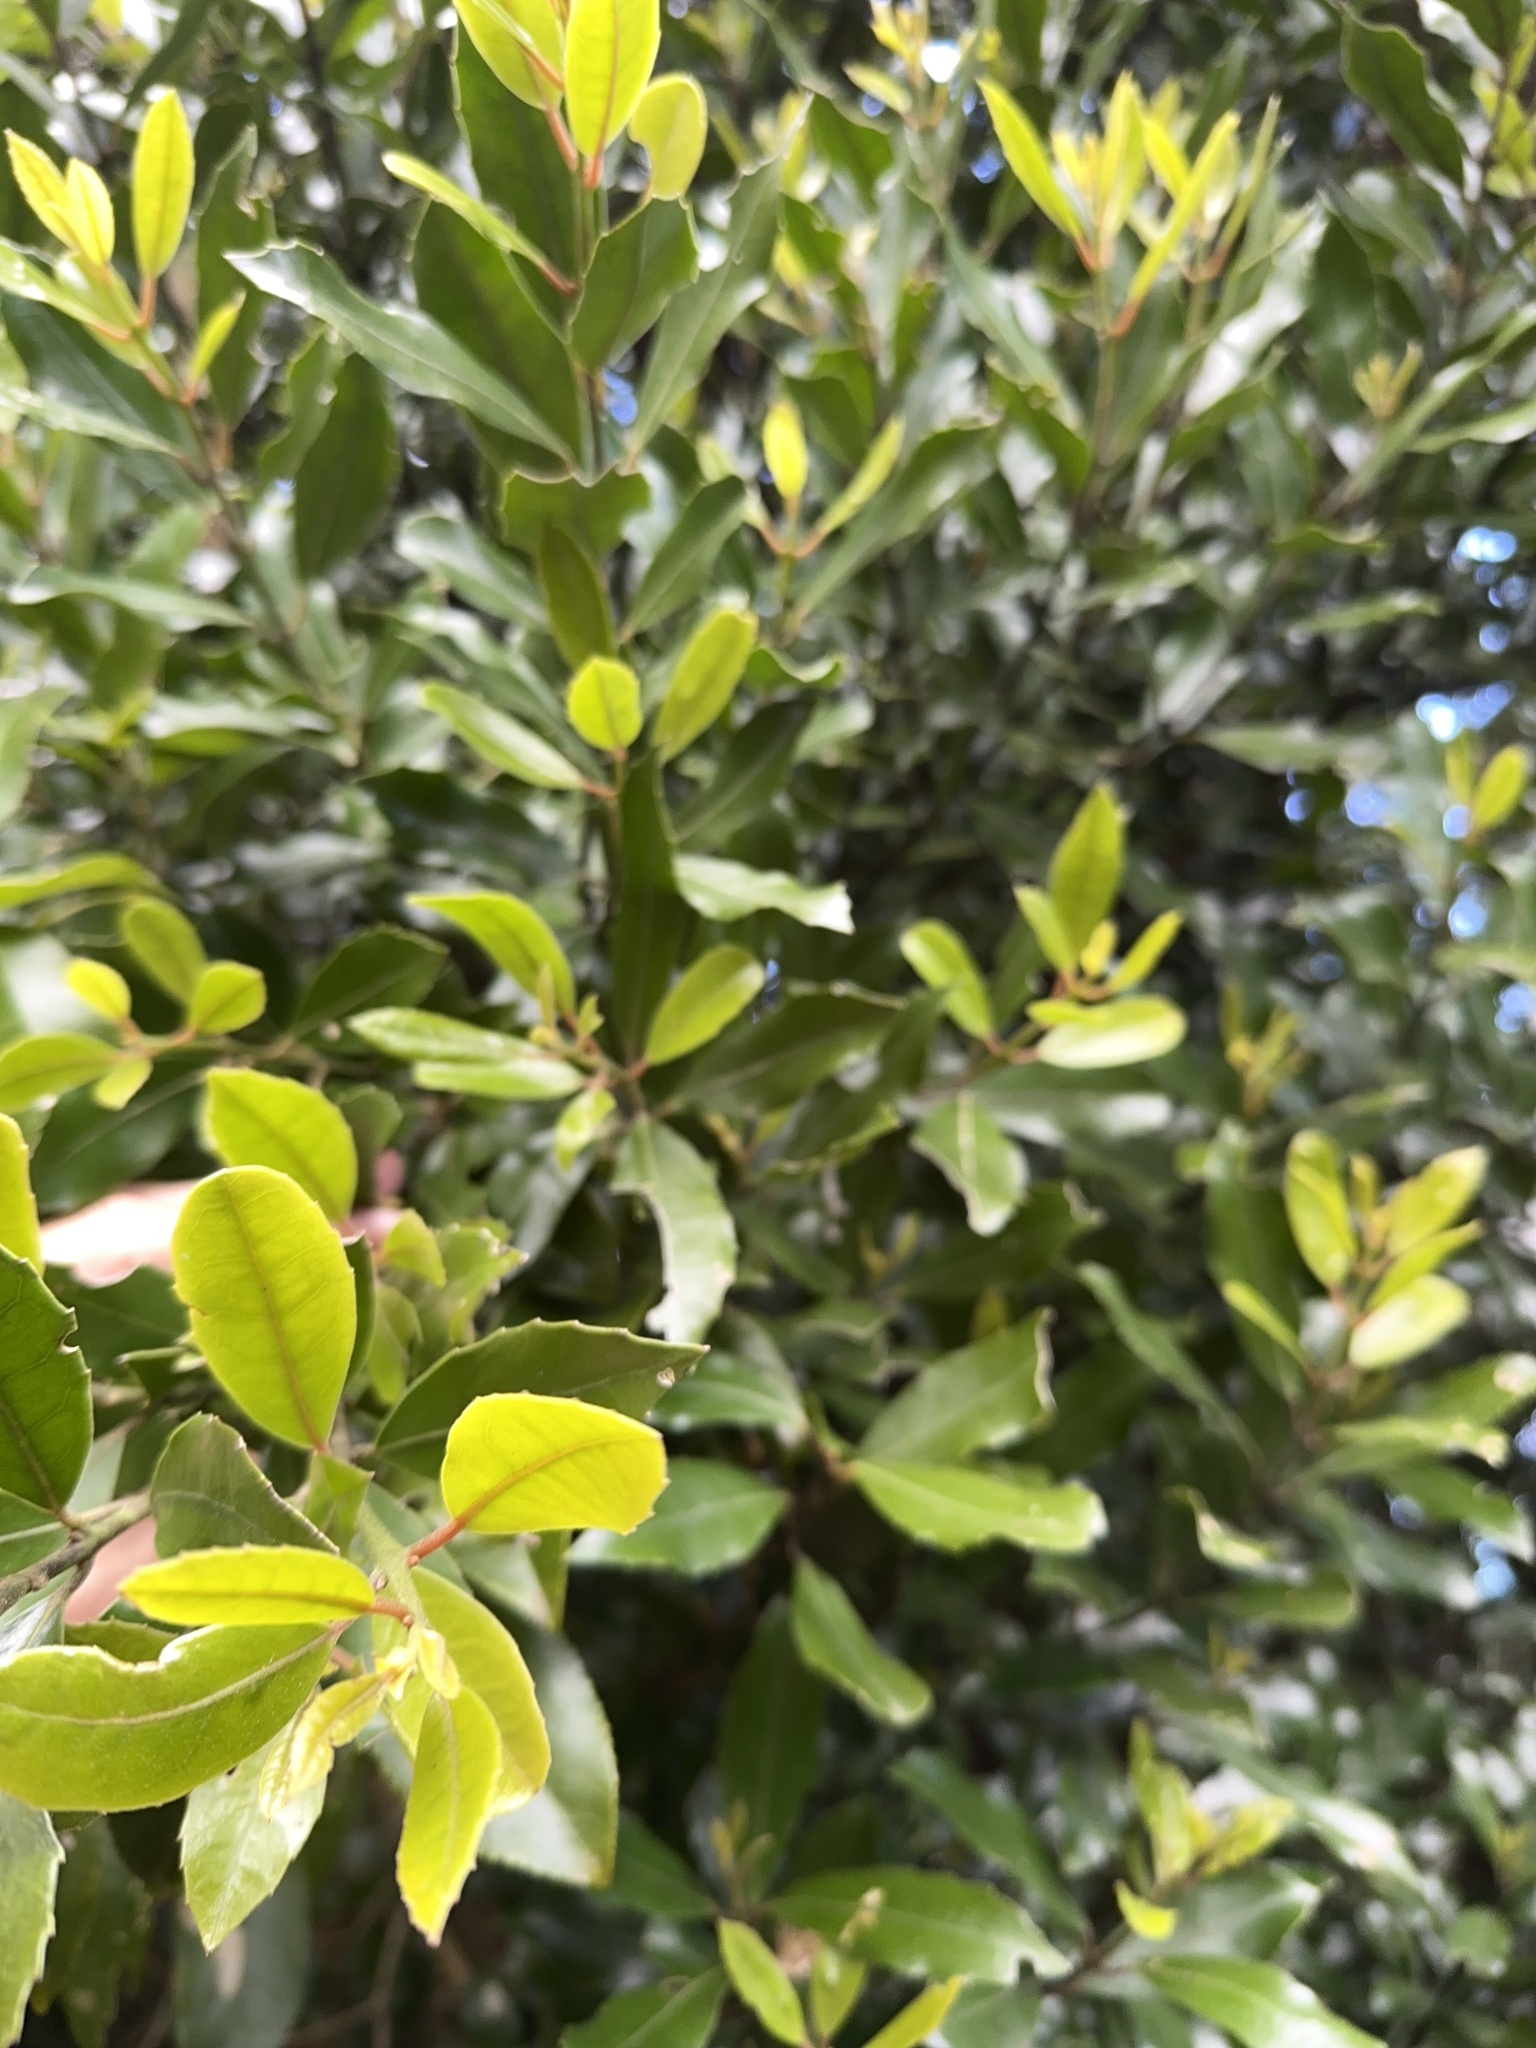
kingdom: Plantae
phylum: Tracheophyta
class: Magnoliopsida
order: Laurales
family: Monimiaceae
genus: Hedycarya
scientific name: Hedycarya arborea
